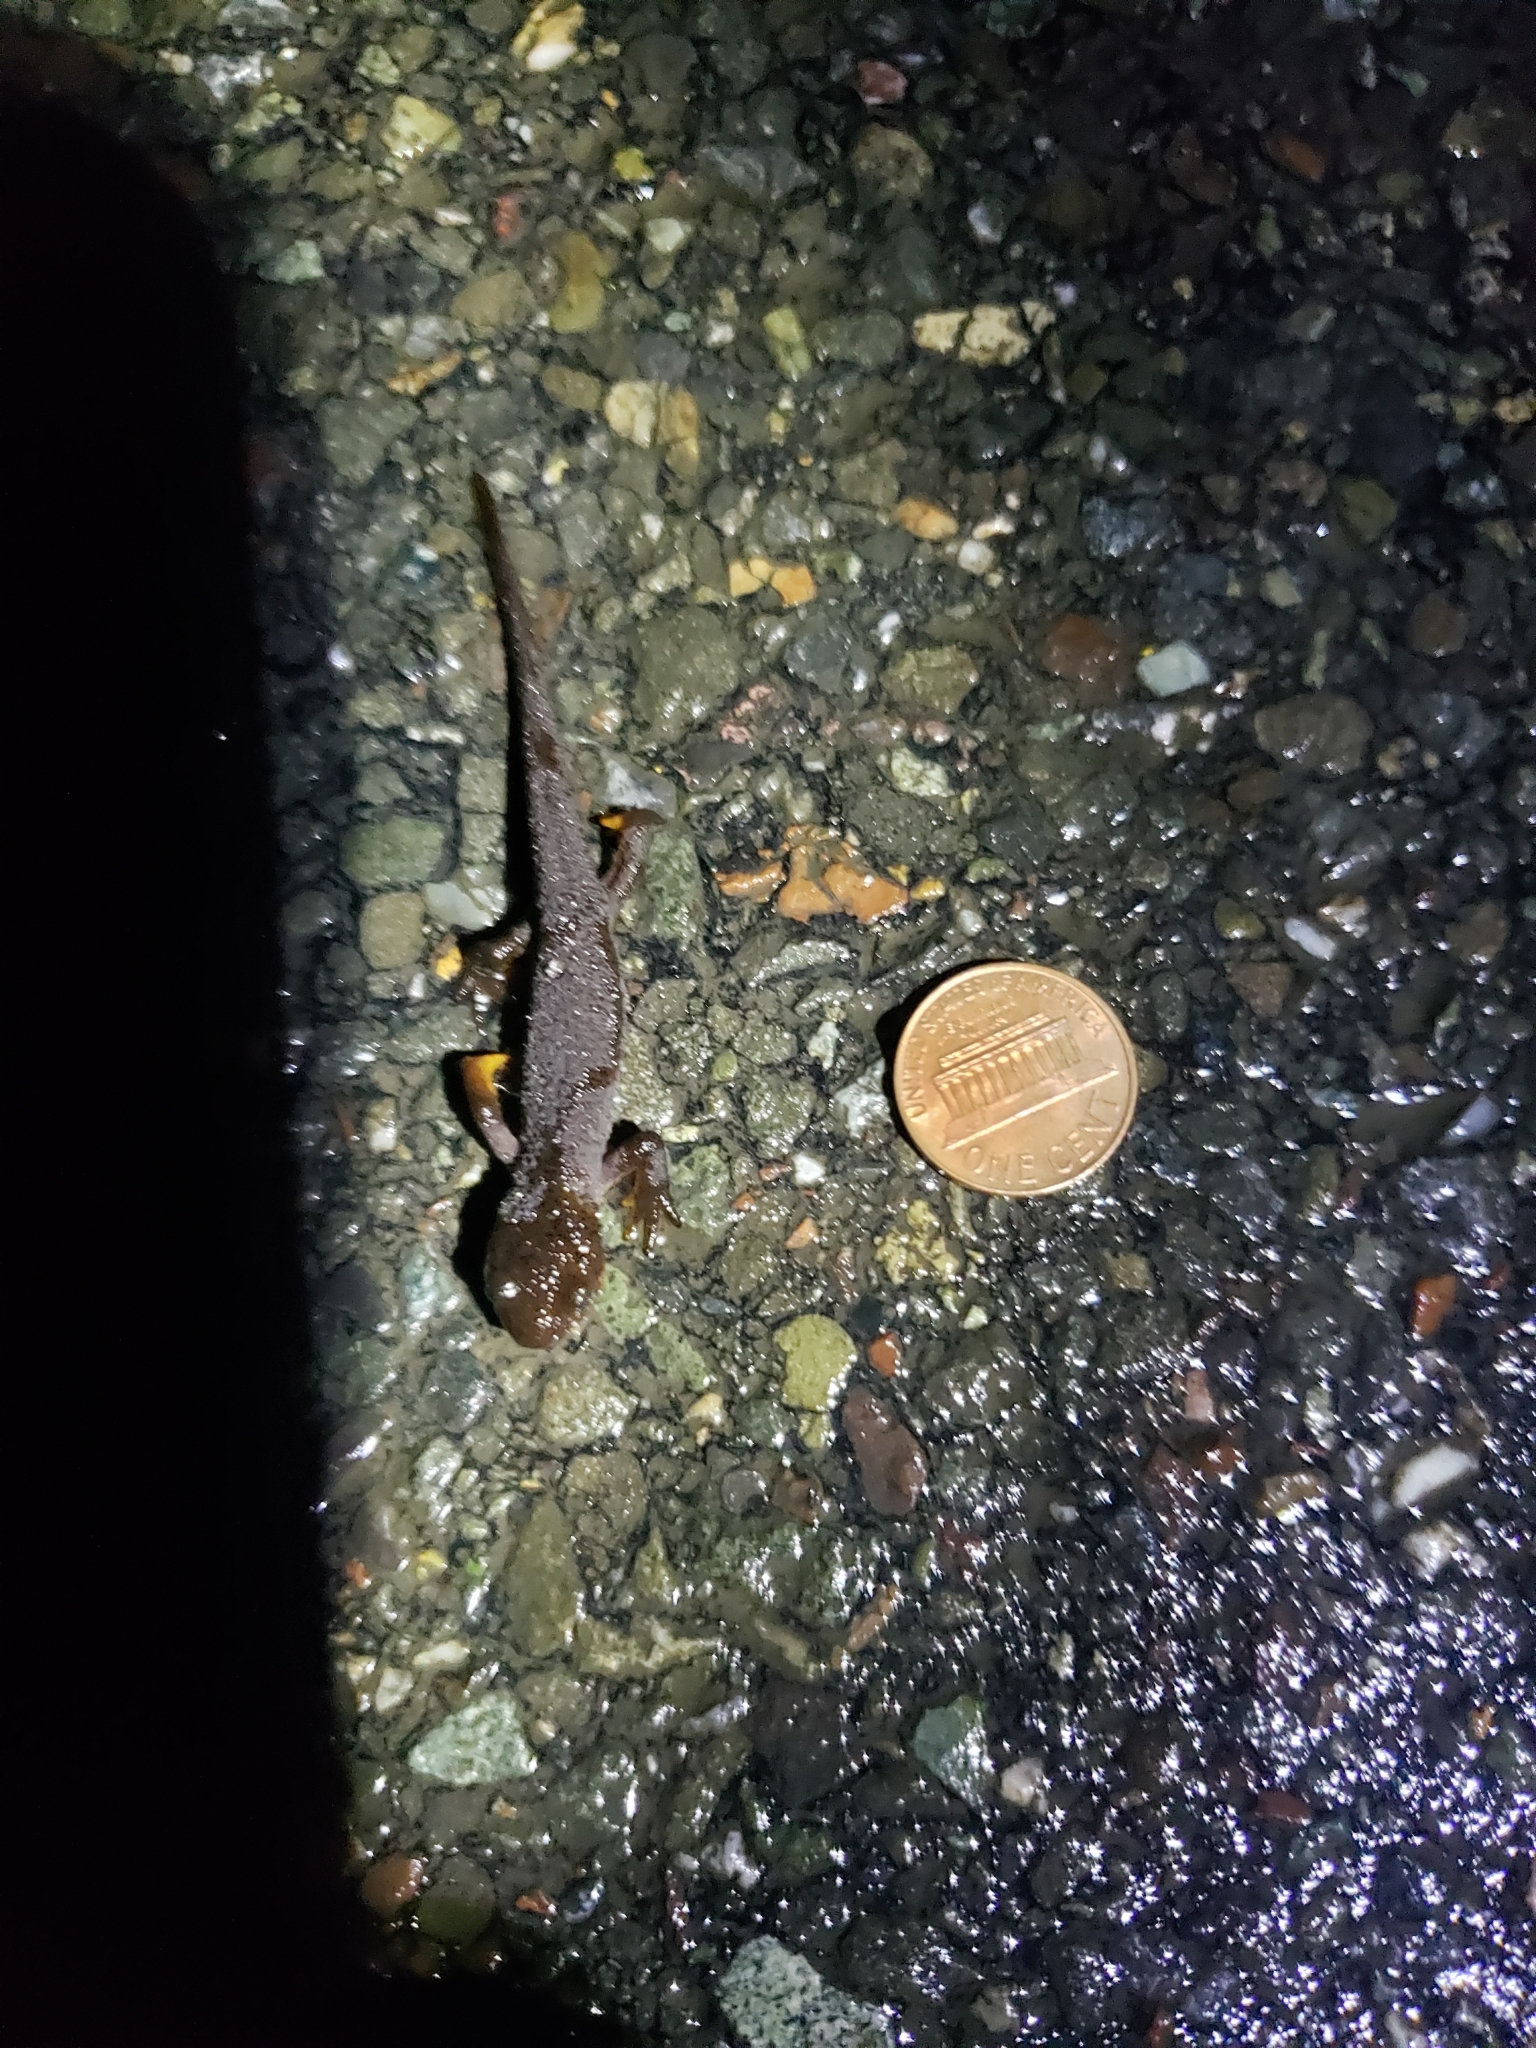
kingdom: Animalia
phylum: Chordata
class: Amphibia
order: Caudata
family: Salamandridae
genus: Taricha
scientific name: Taricha granulosa
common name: Roughskin newt
